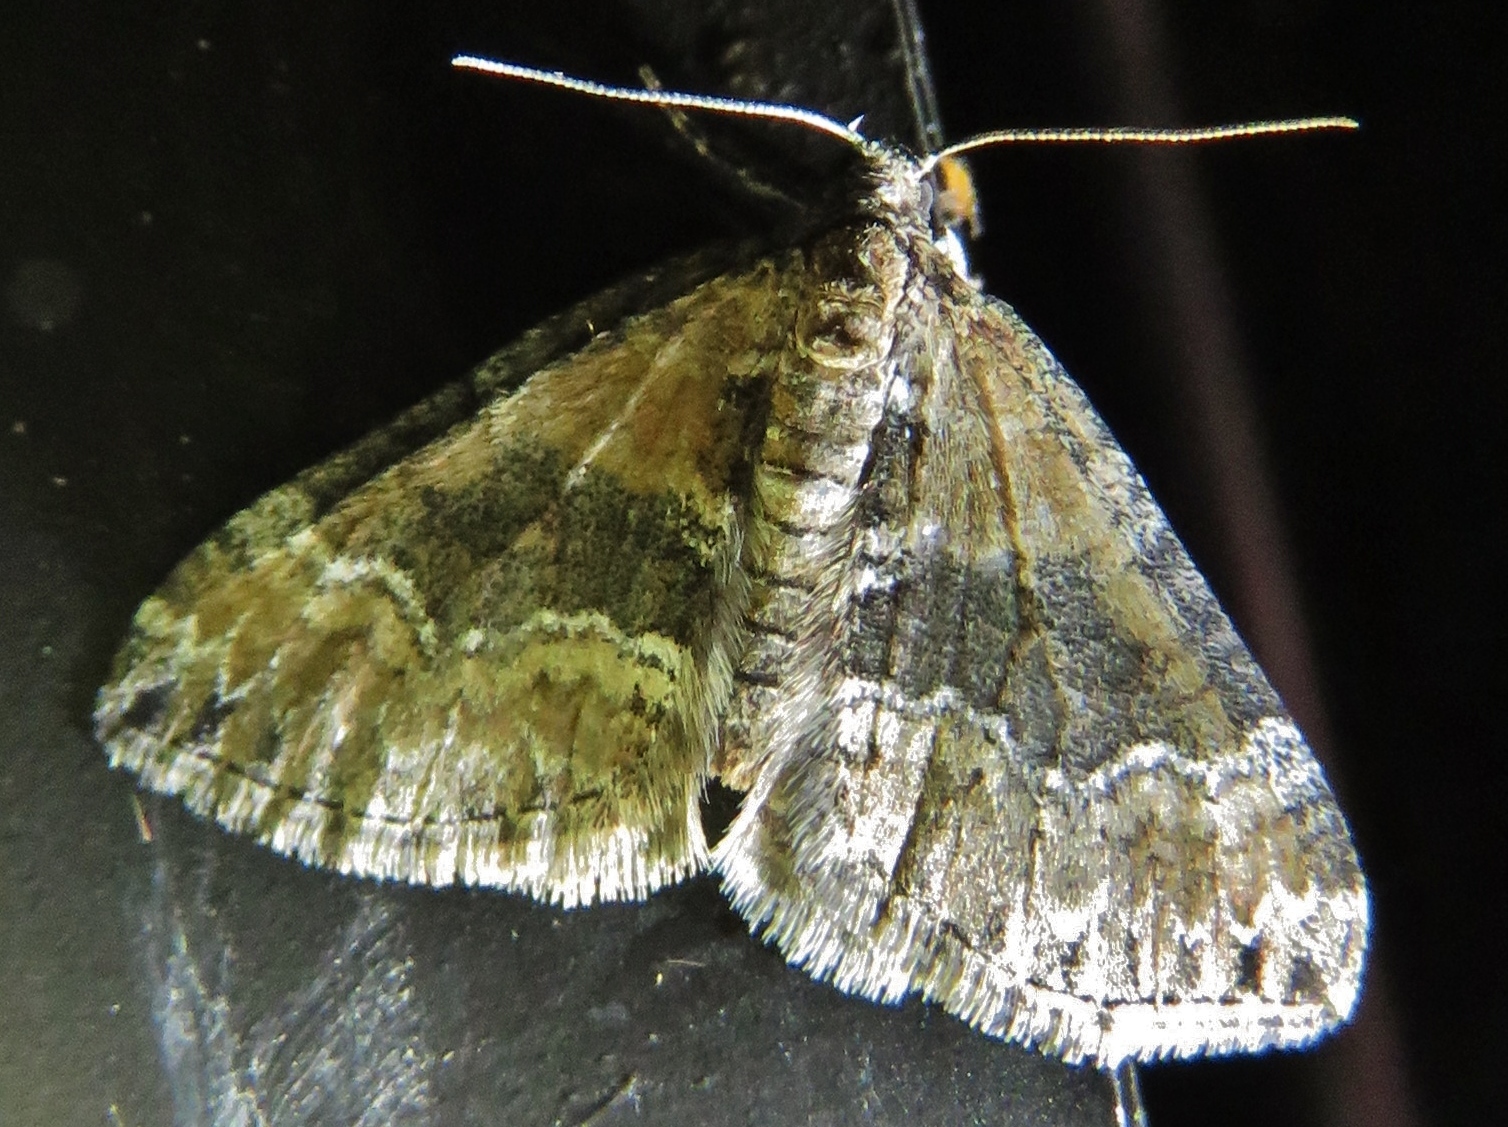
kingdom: Animalia
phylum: Arthropoda
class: Insecta
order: Lepidoptera
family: Geometridae
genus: Perizoma
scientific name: Perizoma bifaciata
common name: Barred rivulet
